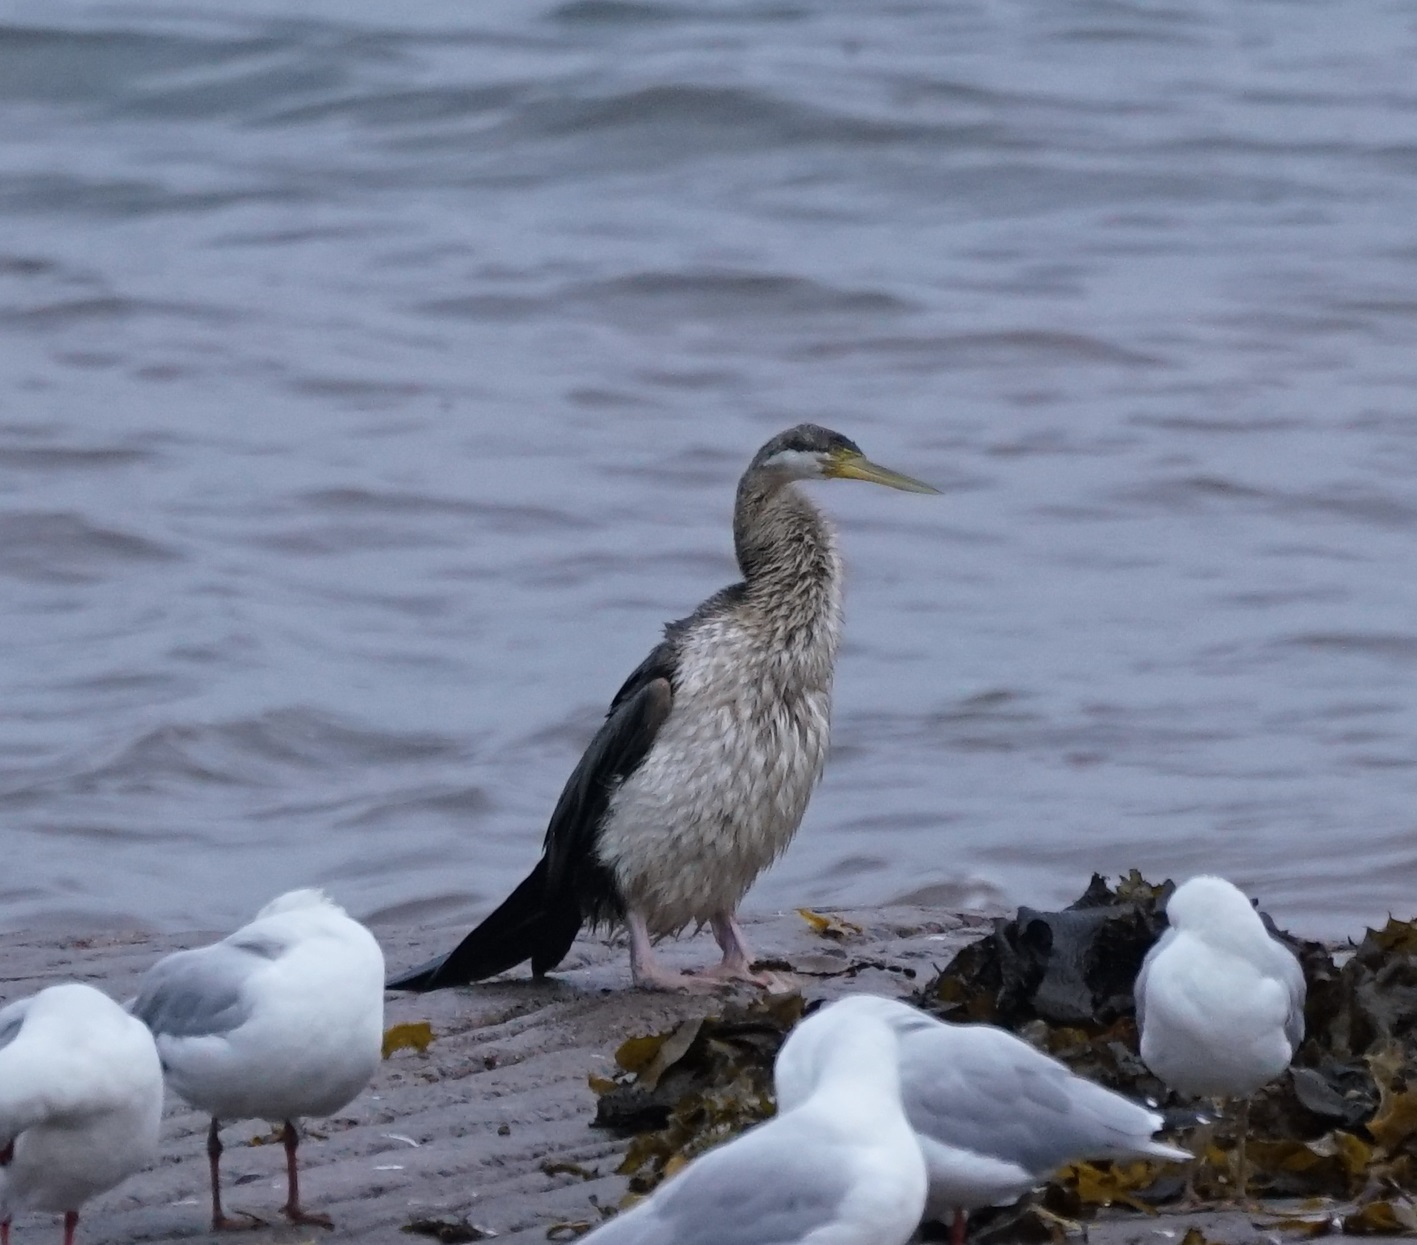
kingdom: Animalia
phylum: Chordata
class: Aves
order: Suliformes
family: Anhingidae
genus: Anhinga
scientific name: Anhinga novaehollandiae
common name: Australasian darter
